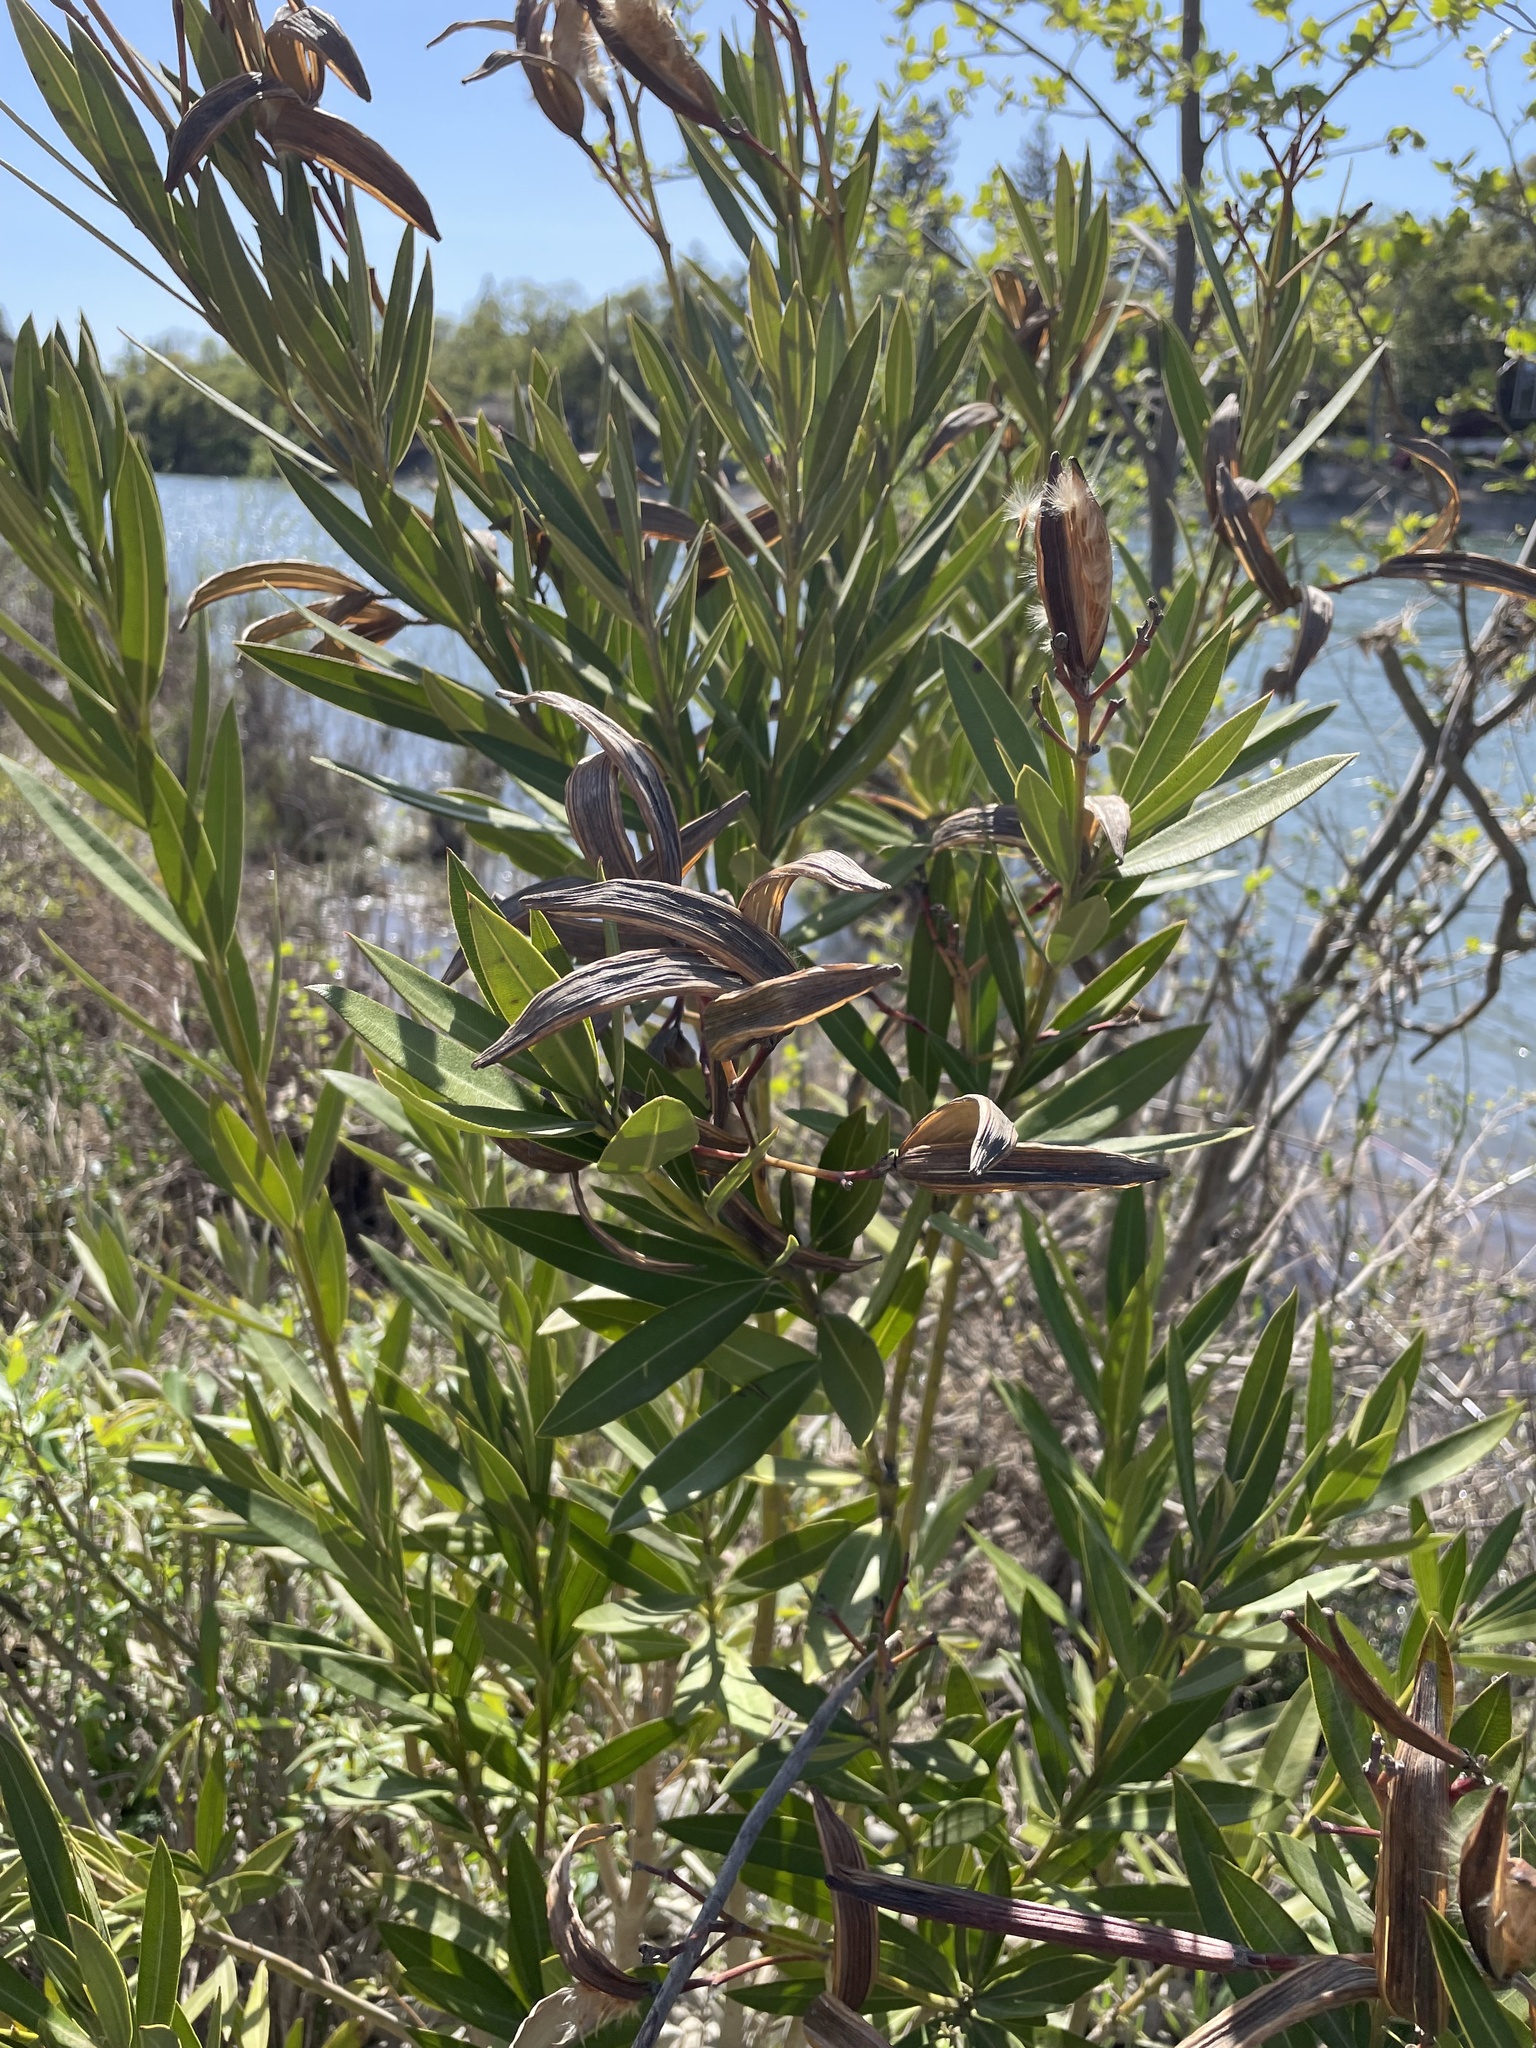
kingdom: Plantae
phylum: Tracheophyta
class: Magnoliopsida
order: Gentianales
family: Apocynaceae
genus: Nerium
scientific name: Nerium oleander
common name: Oleander
